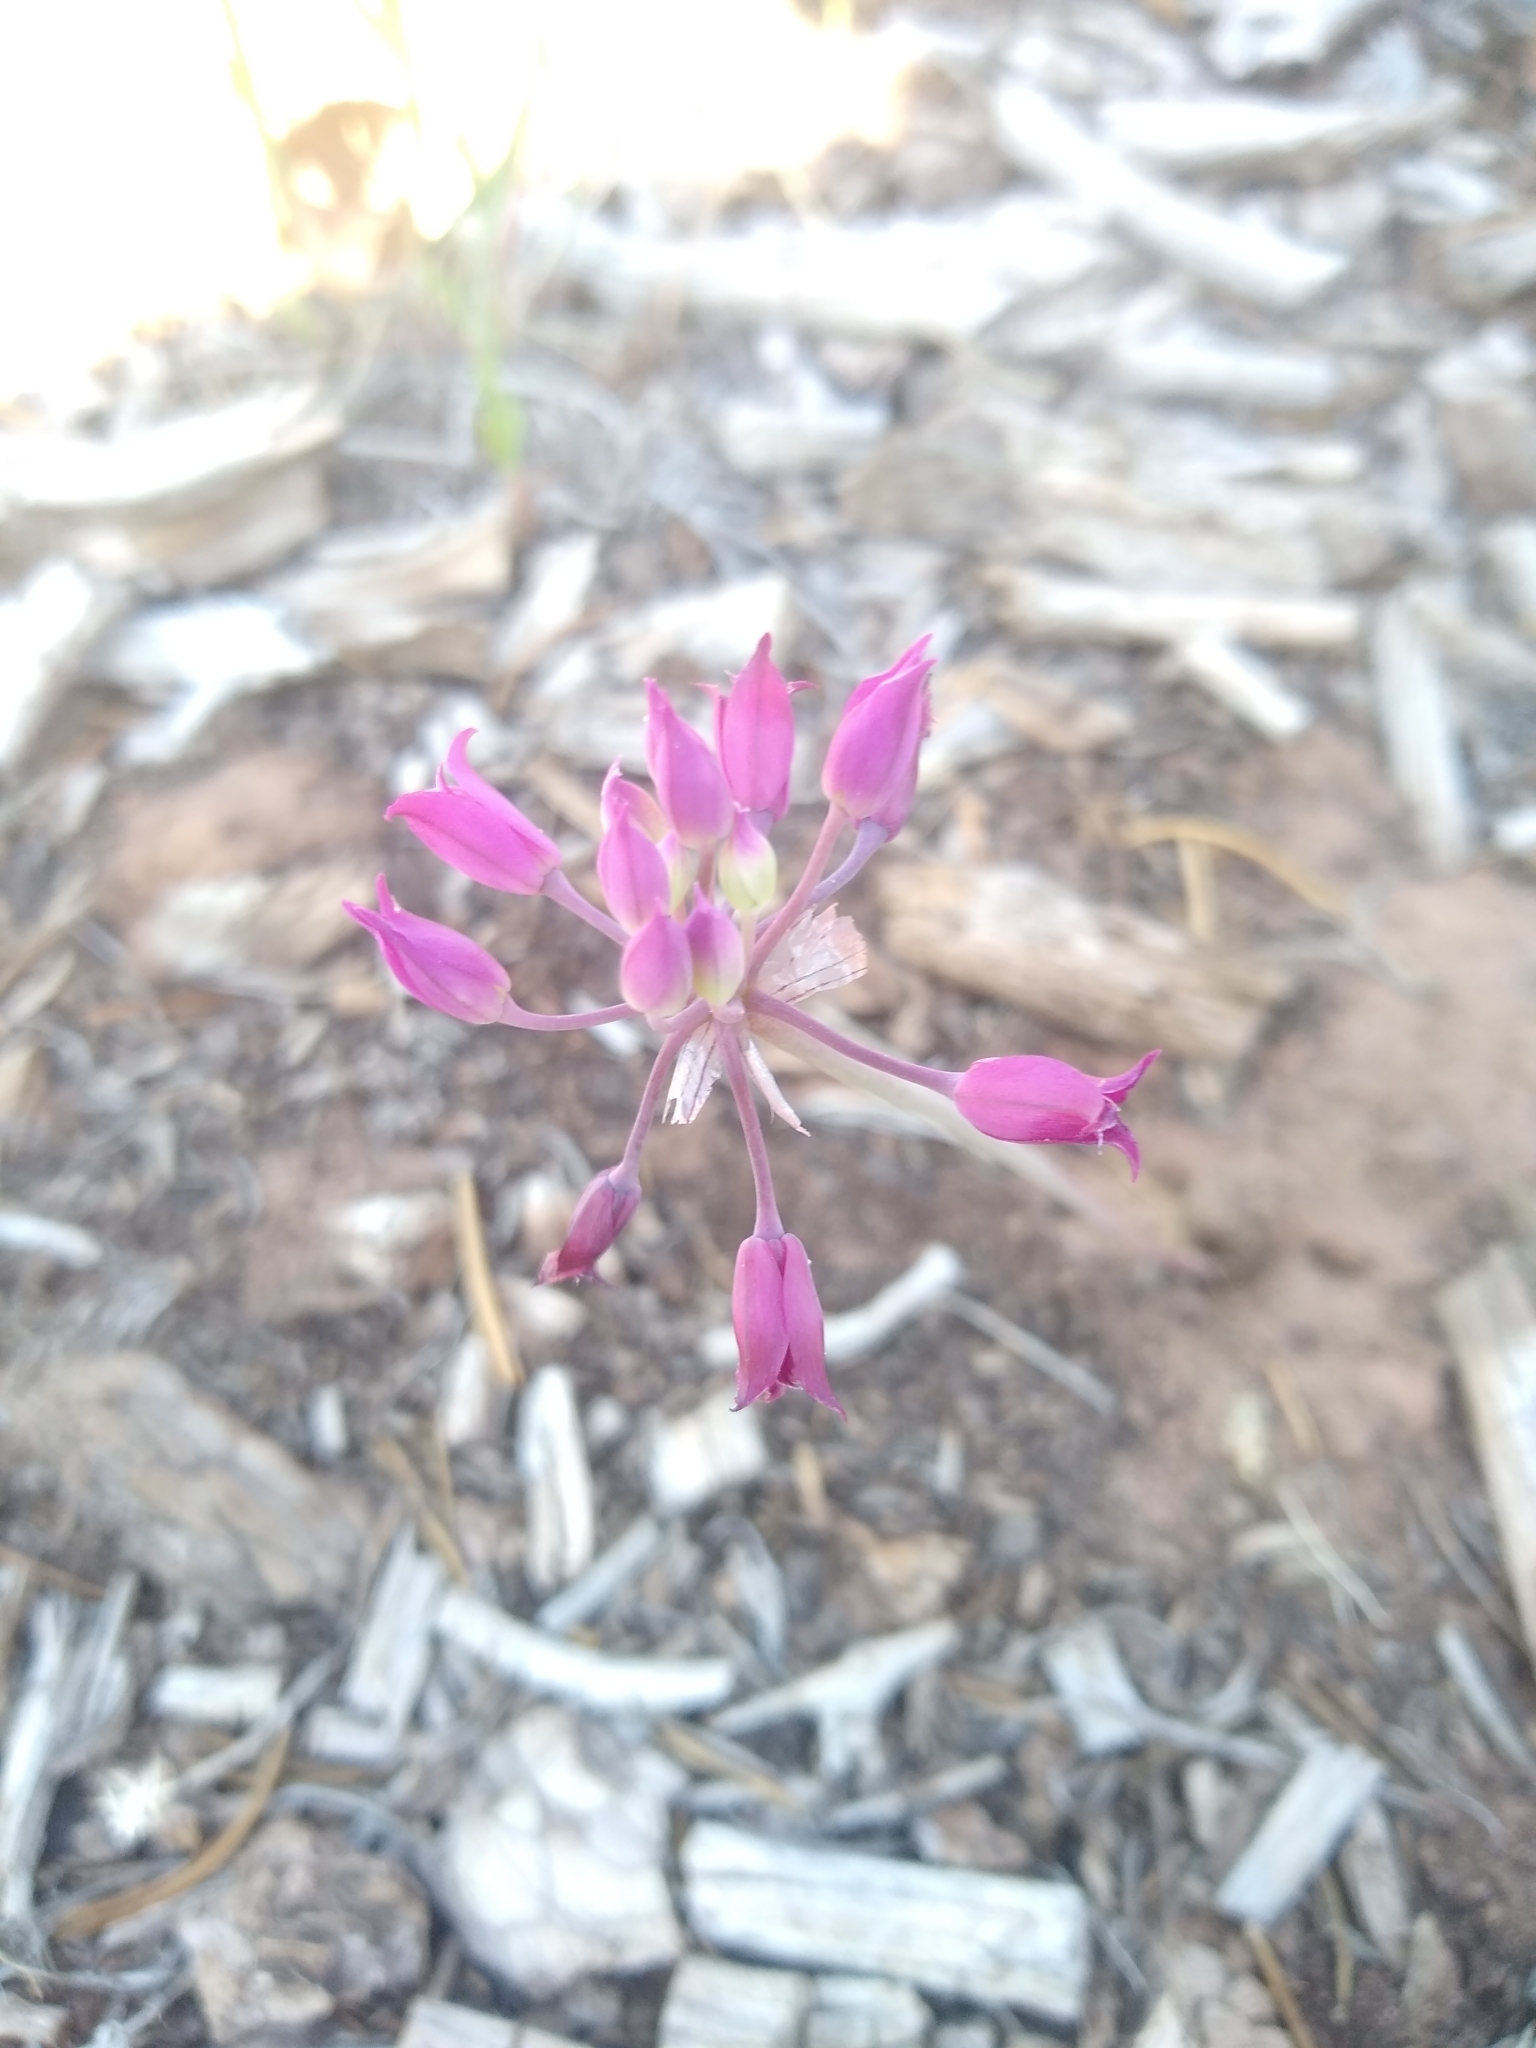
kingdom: Plantae
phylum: Tracheophyta
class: Liliopsida
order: Asparagales
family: Amaryllidaceae
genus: Allium
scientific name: Allium acuminatum
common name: Hooker's onion
